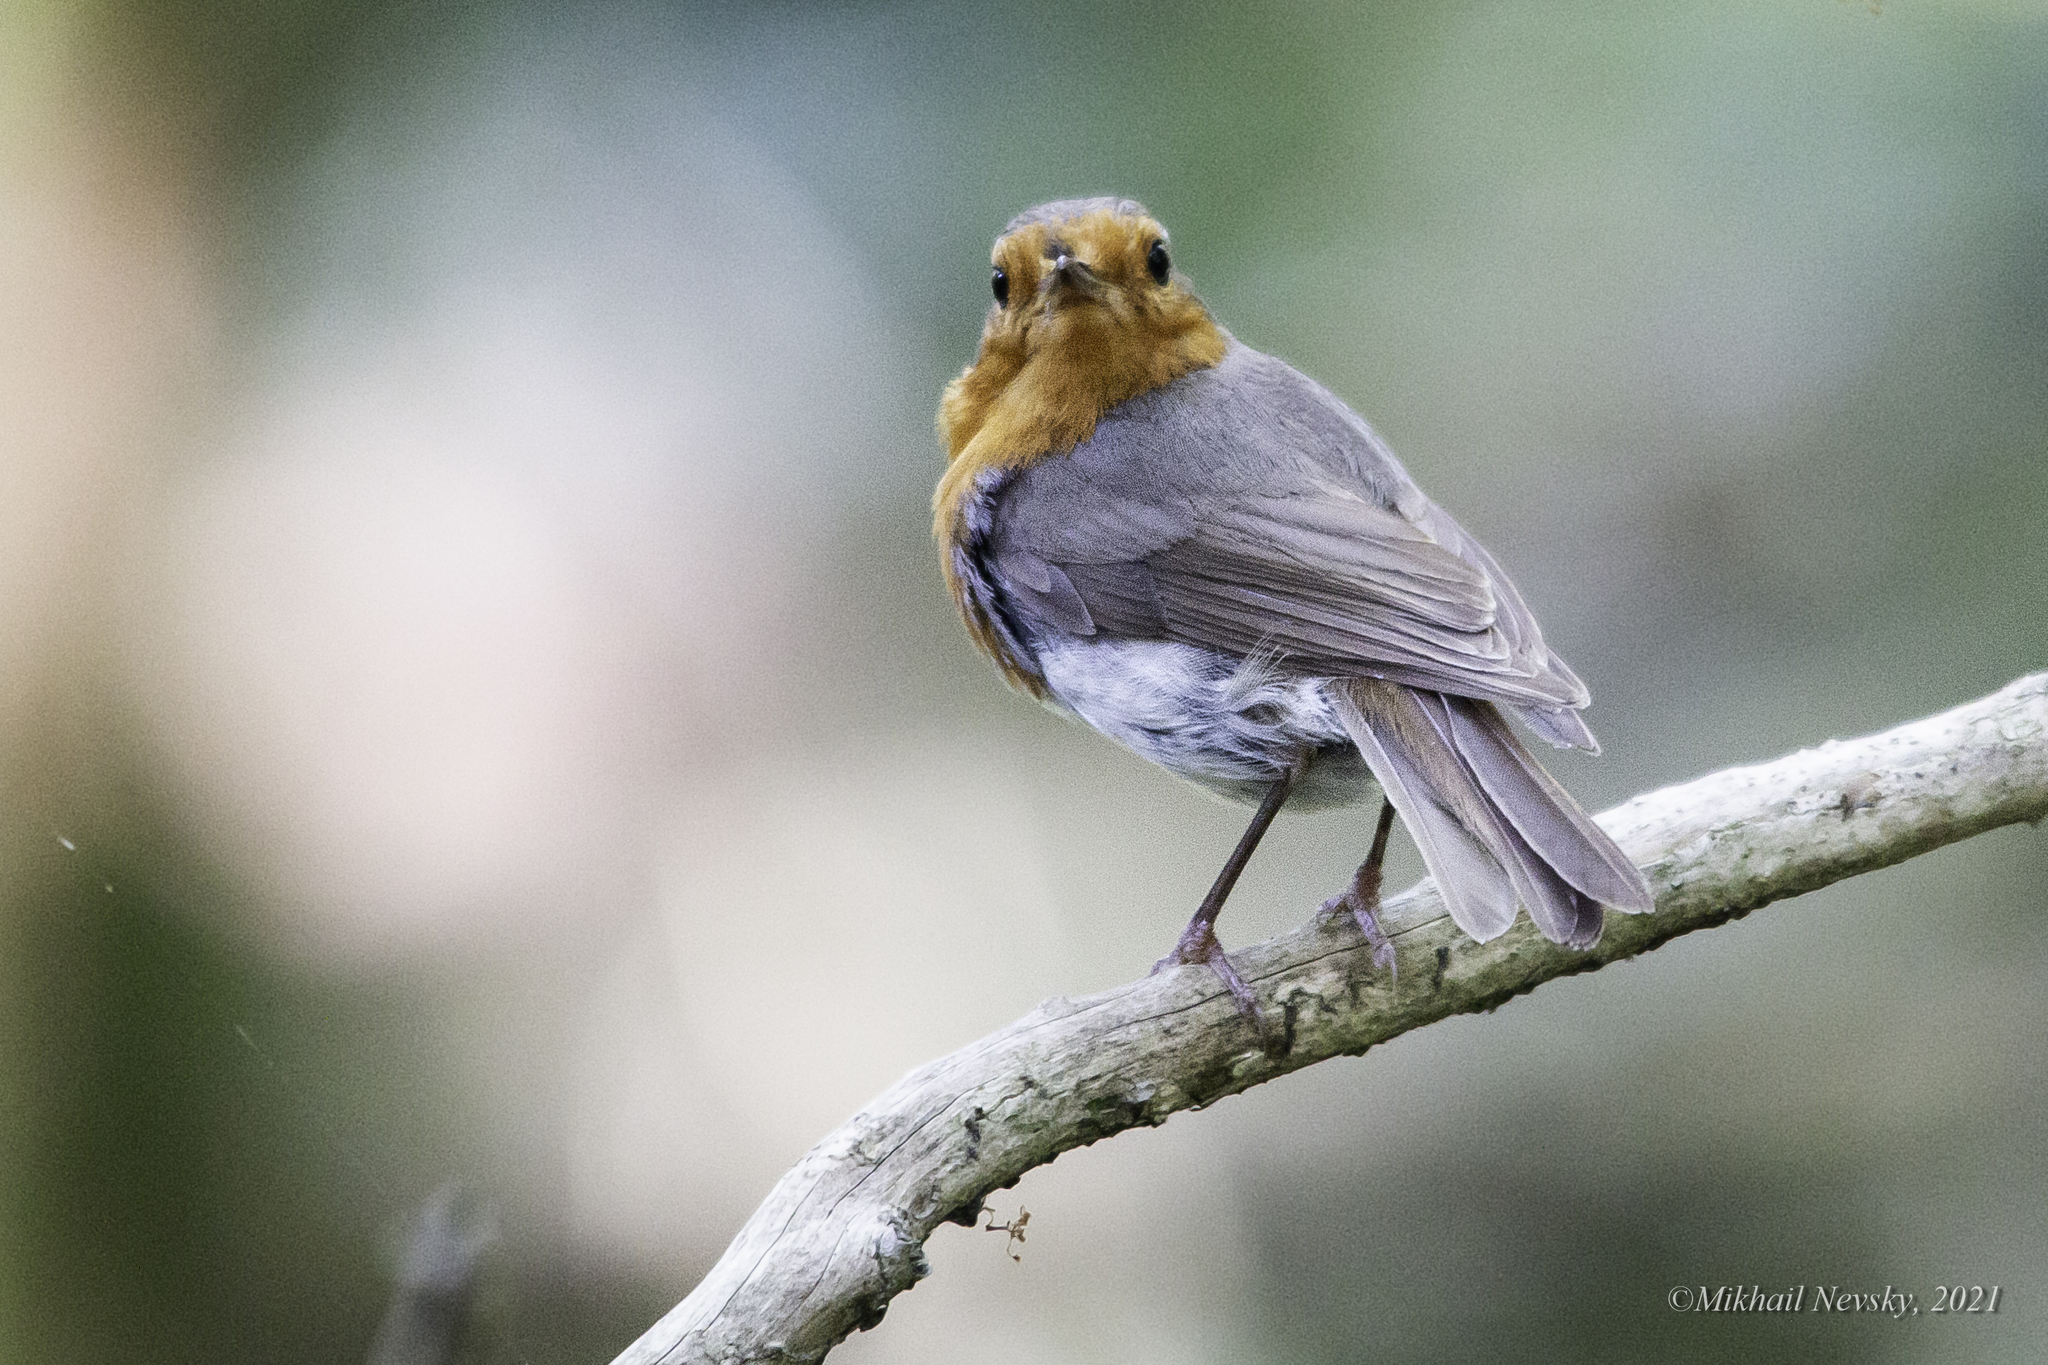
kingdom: Animalia
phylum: Chordata
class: Aves
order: Passeriformes
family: Muscicapidae
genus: Erithacus
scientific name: Erithacus rubecula
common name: European robin
